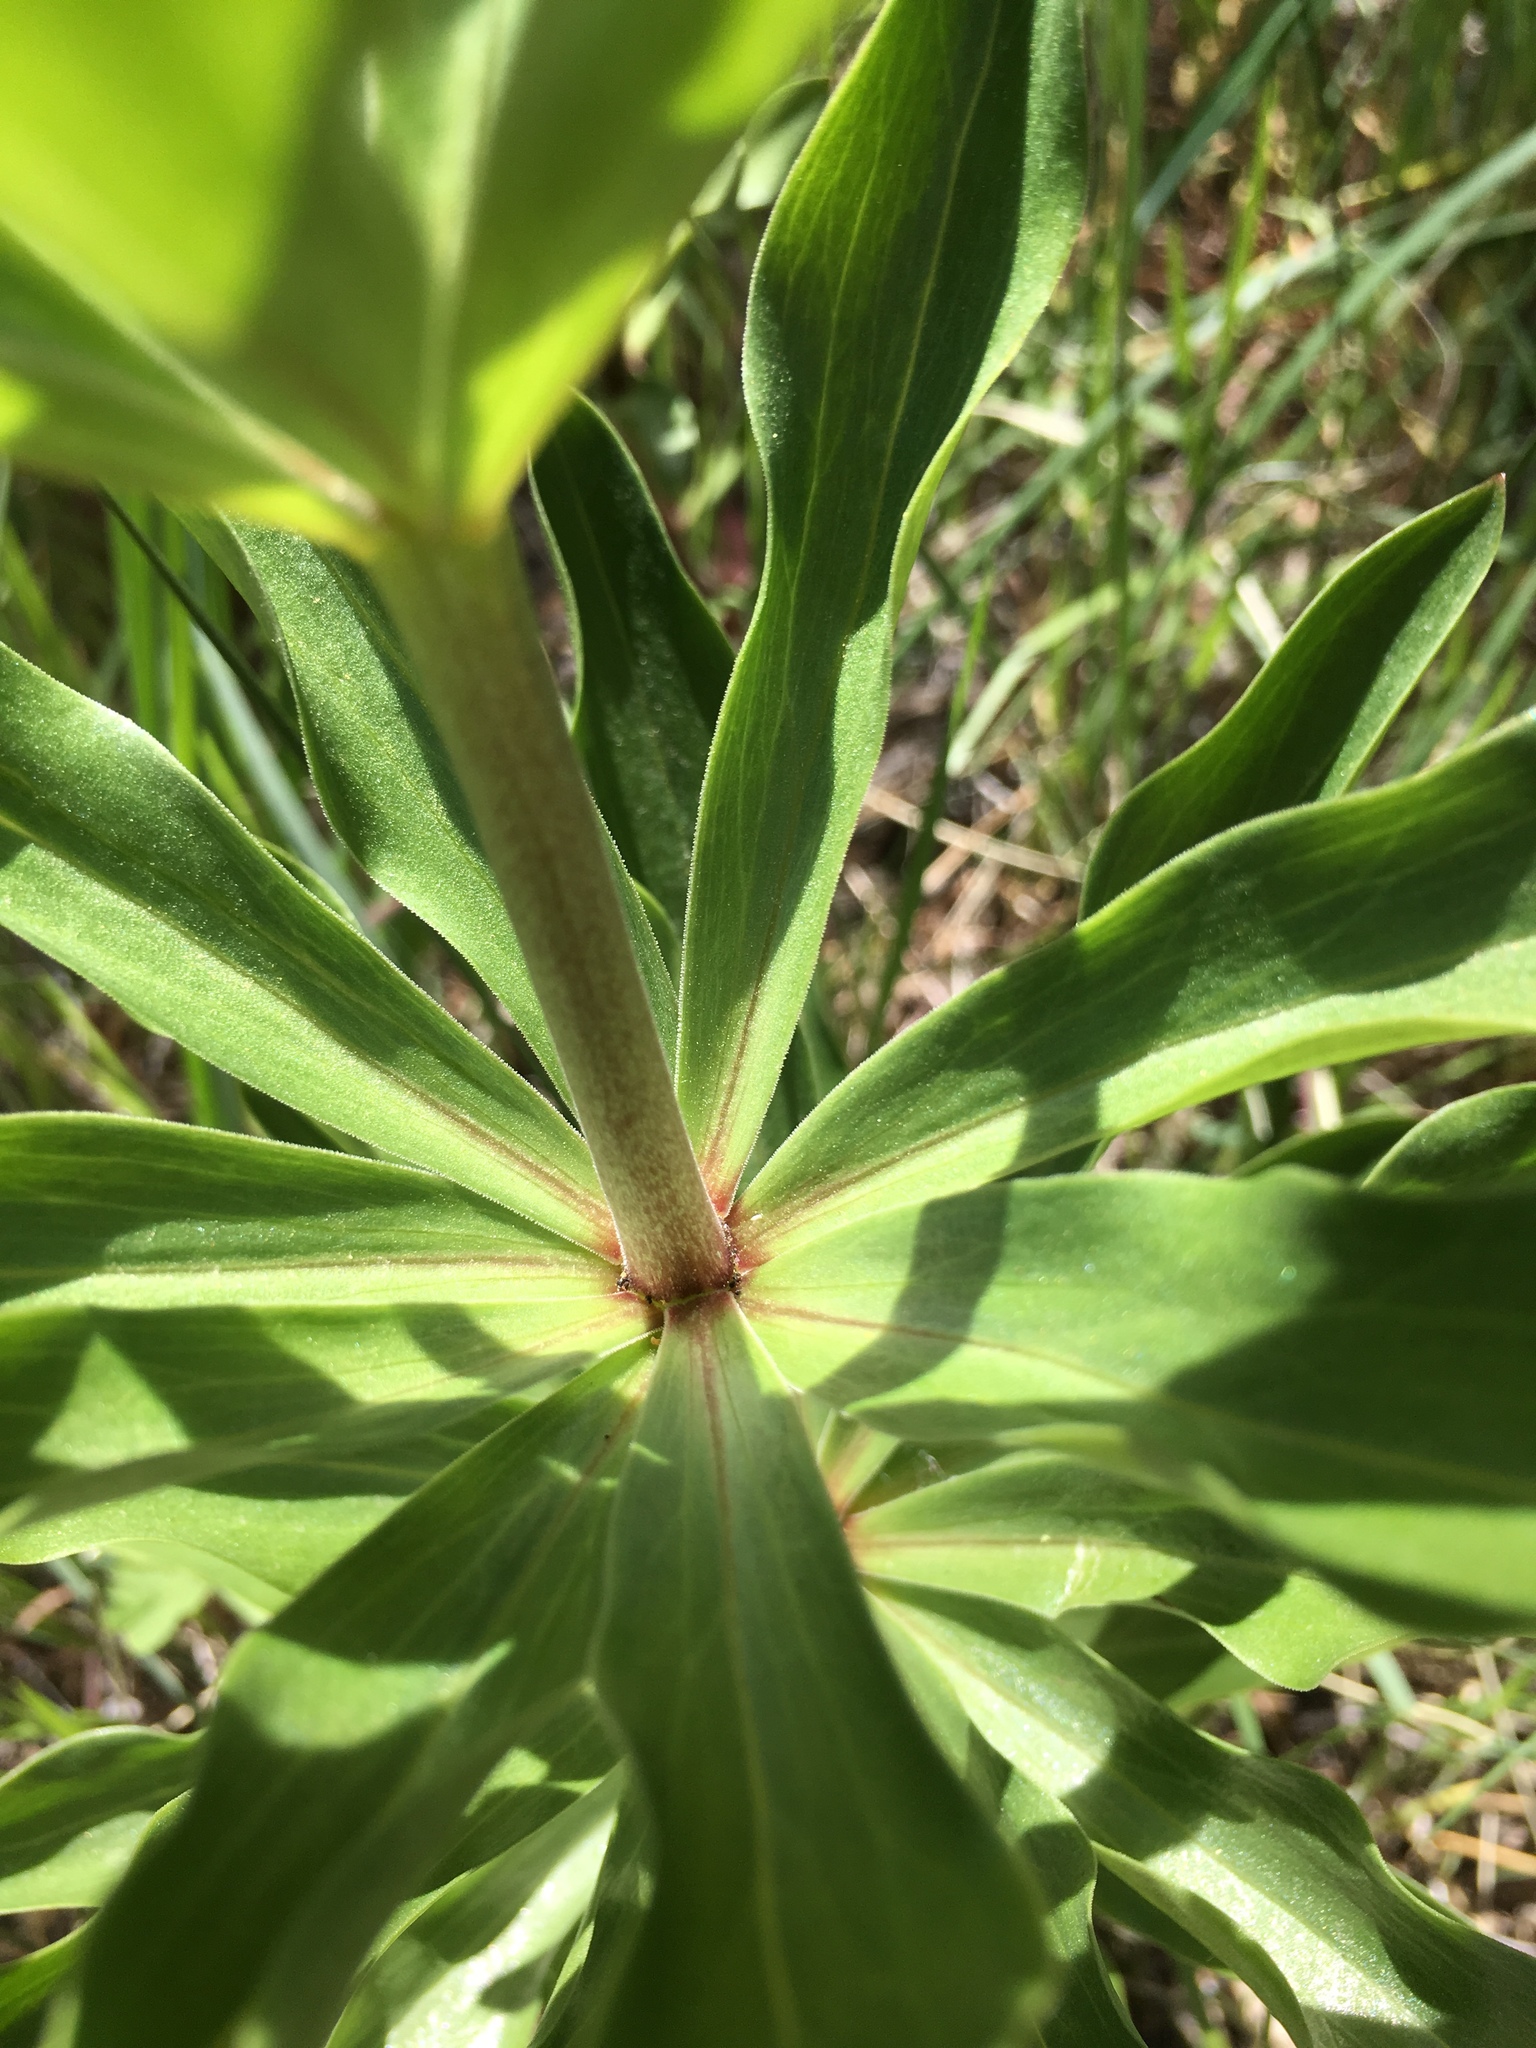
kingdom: Plantae
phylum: Tracheophyta
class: Liliopsida
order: Liliales
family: Liliaceae
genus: Lilium
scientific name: Lilium humboldtii
